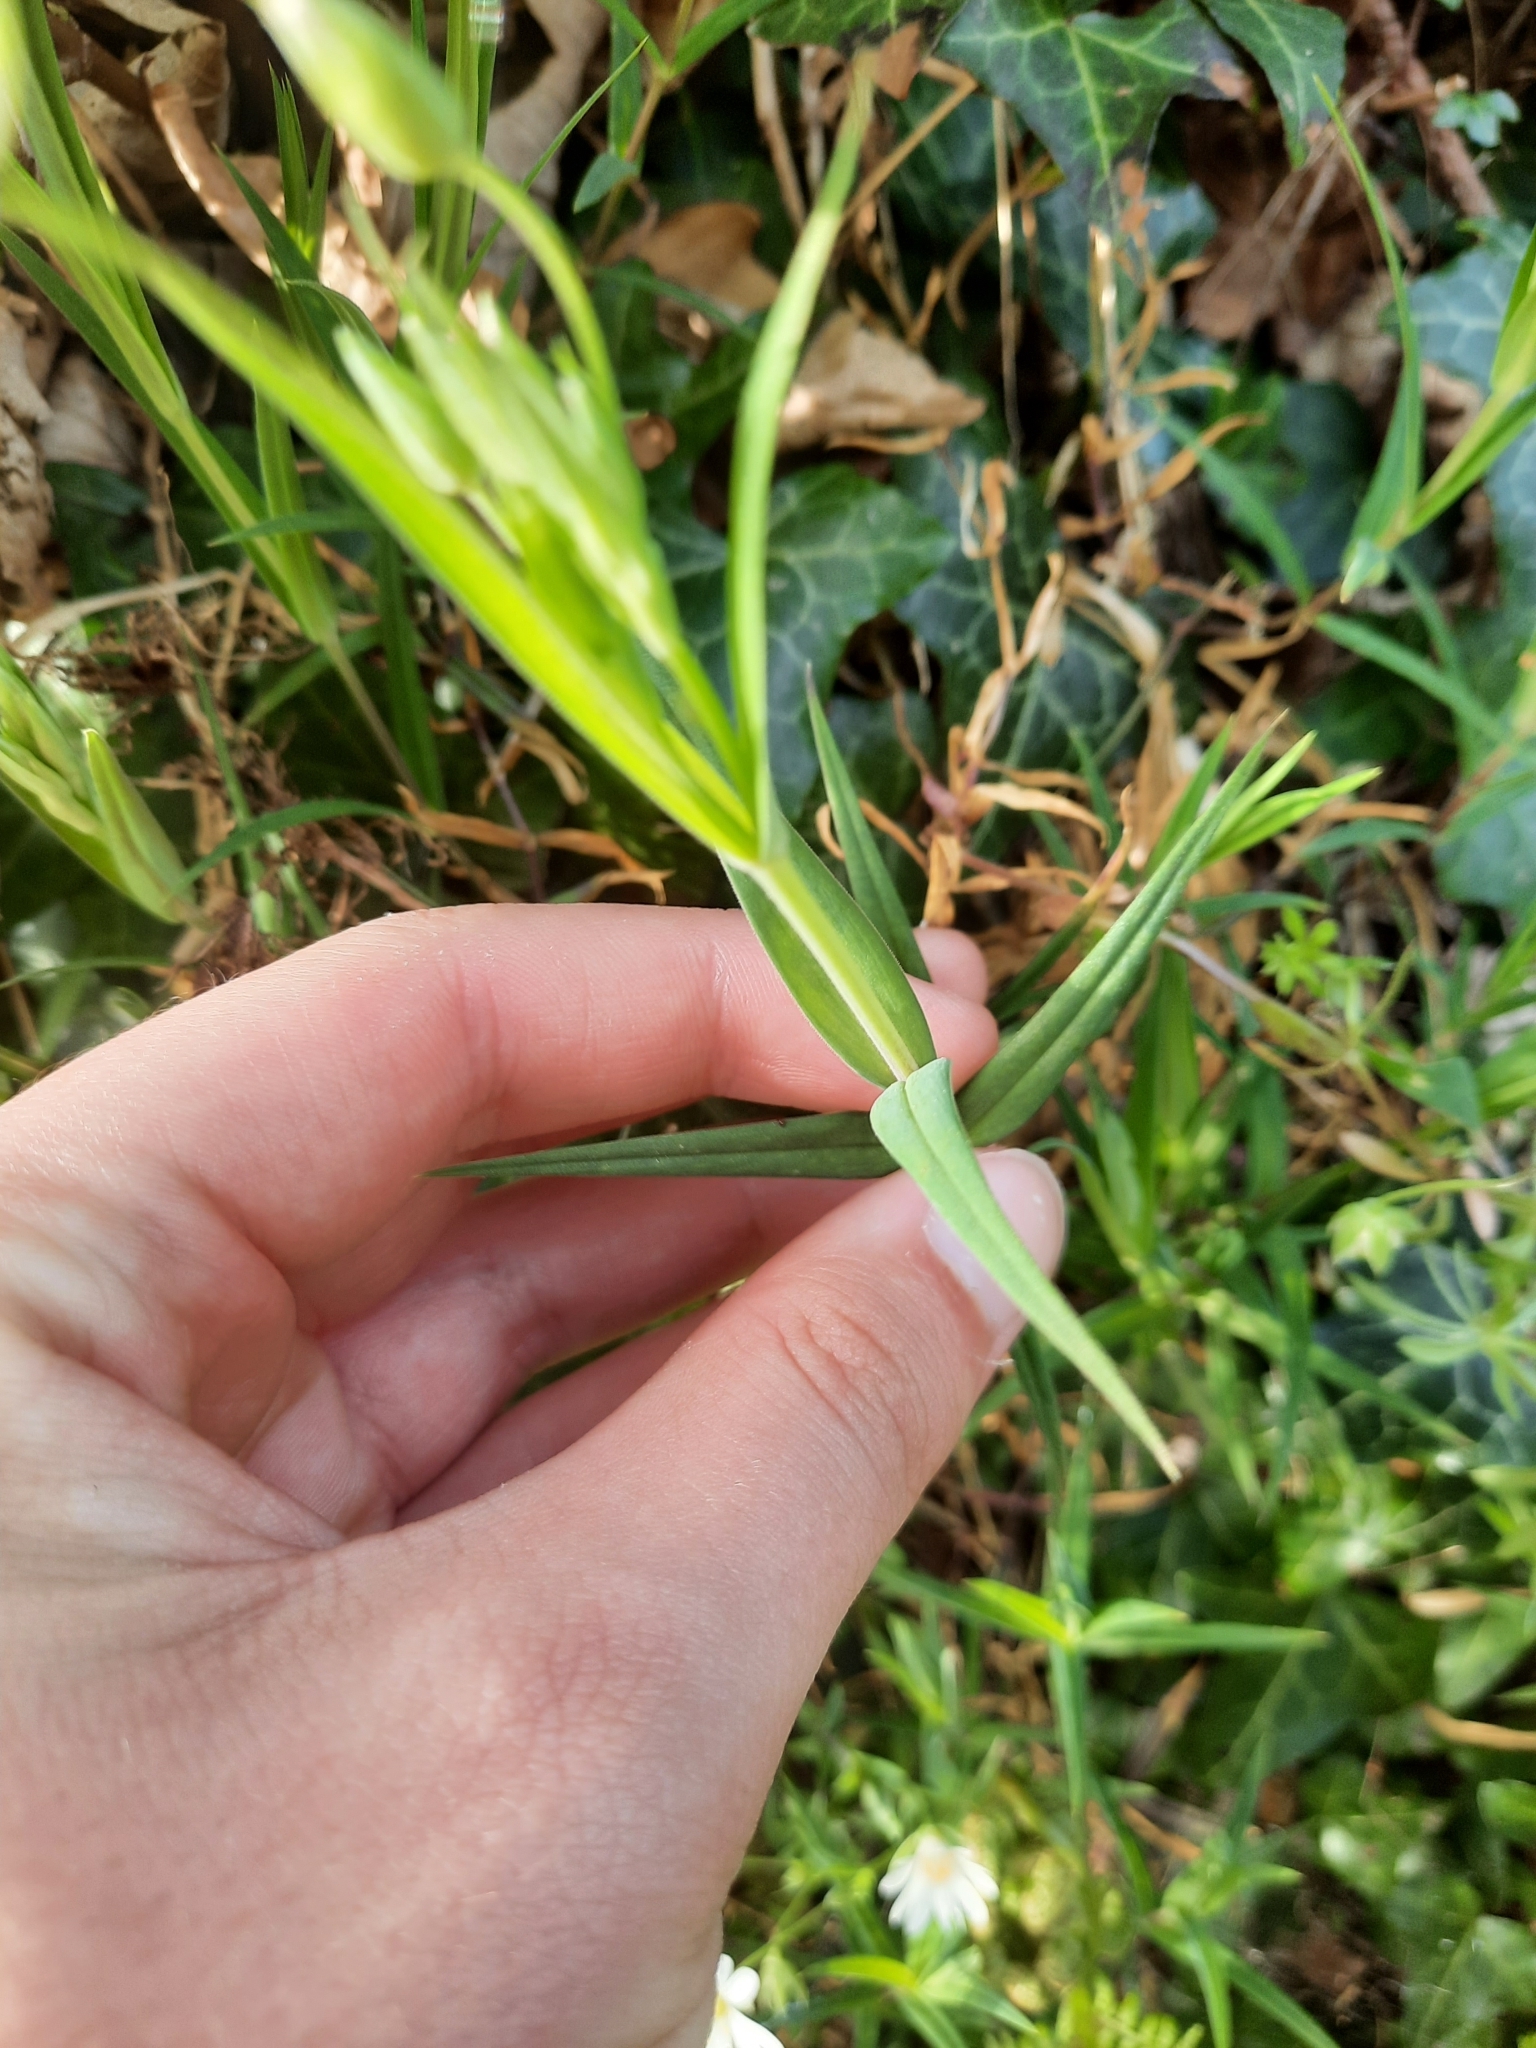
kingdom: Plantae
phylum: Tracheophyta
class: Magnoliopsida
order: Caryophyllales
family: Caryophyllaceae
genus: Rabelera
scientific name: Rabelera holostea
